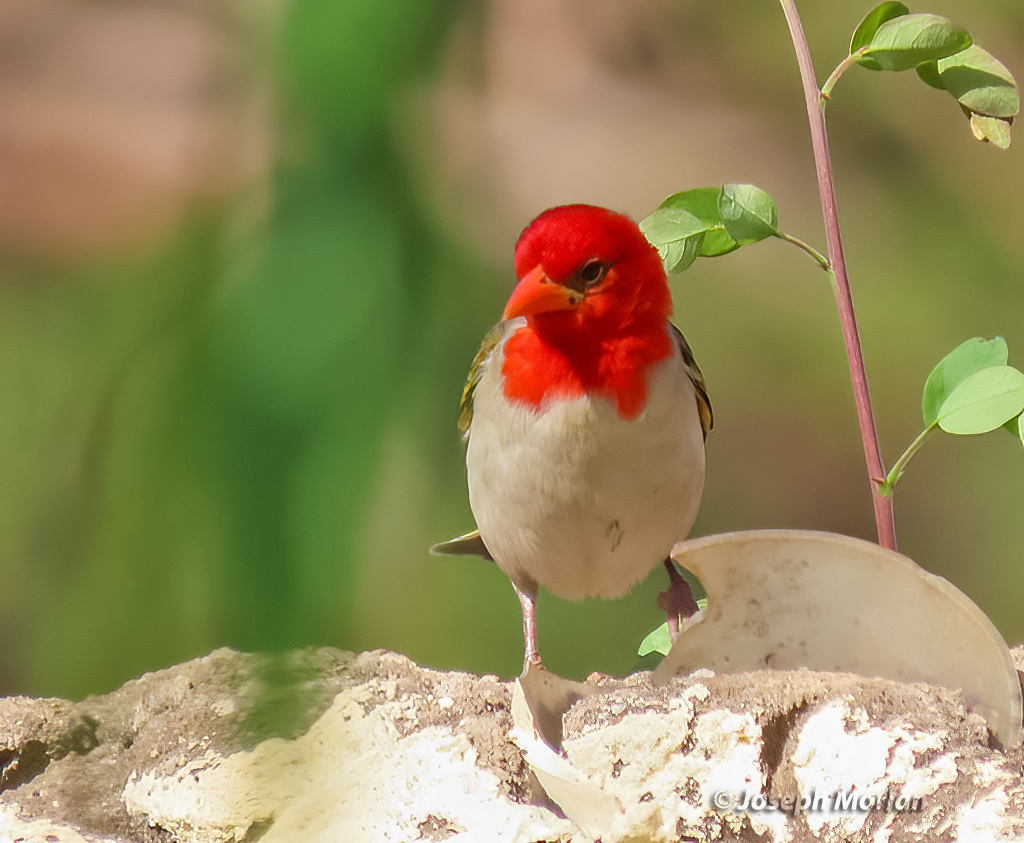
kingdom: Animalia
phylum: Chordata
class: Aves
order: Passeriformes
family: Ploceidae
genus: Anaplectes
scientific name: Anaplectes rubriceps
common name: Red-headed weaver
